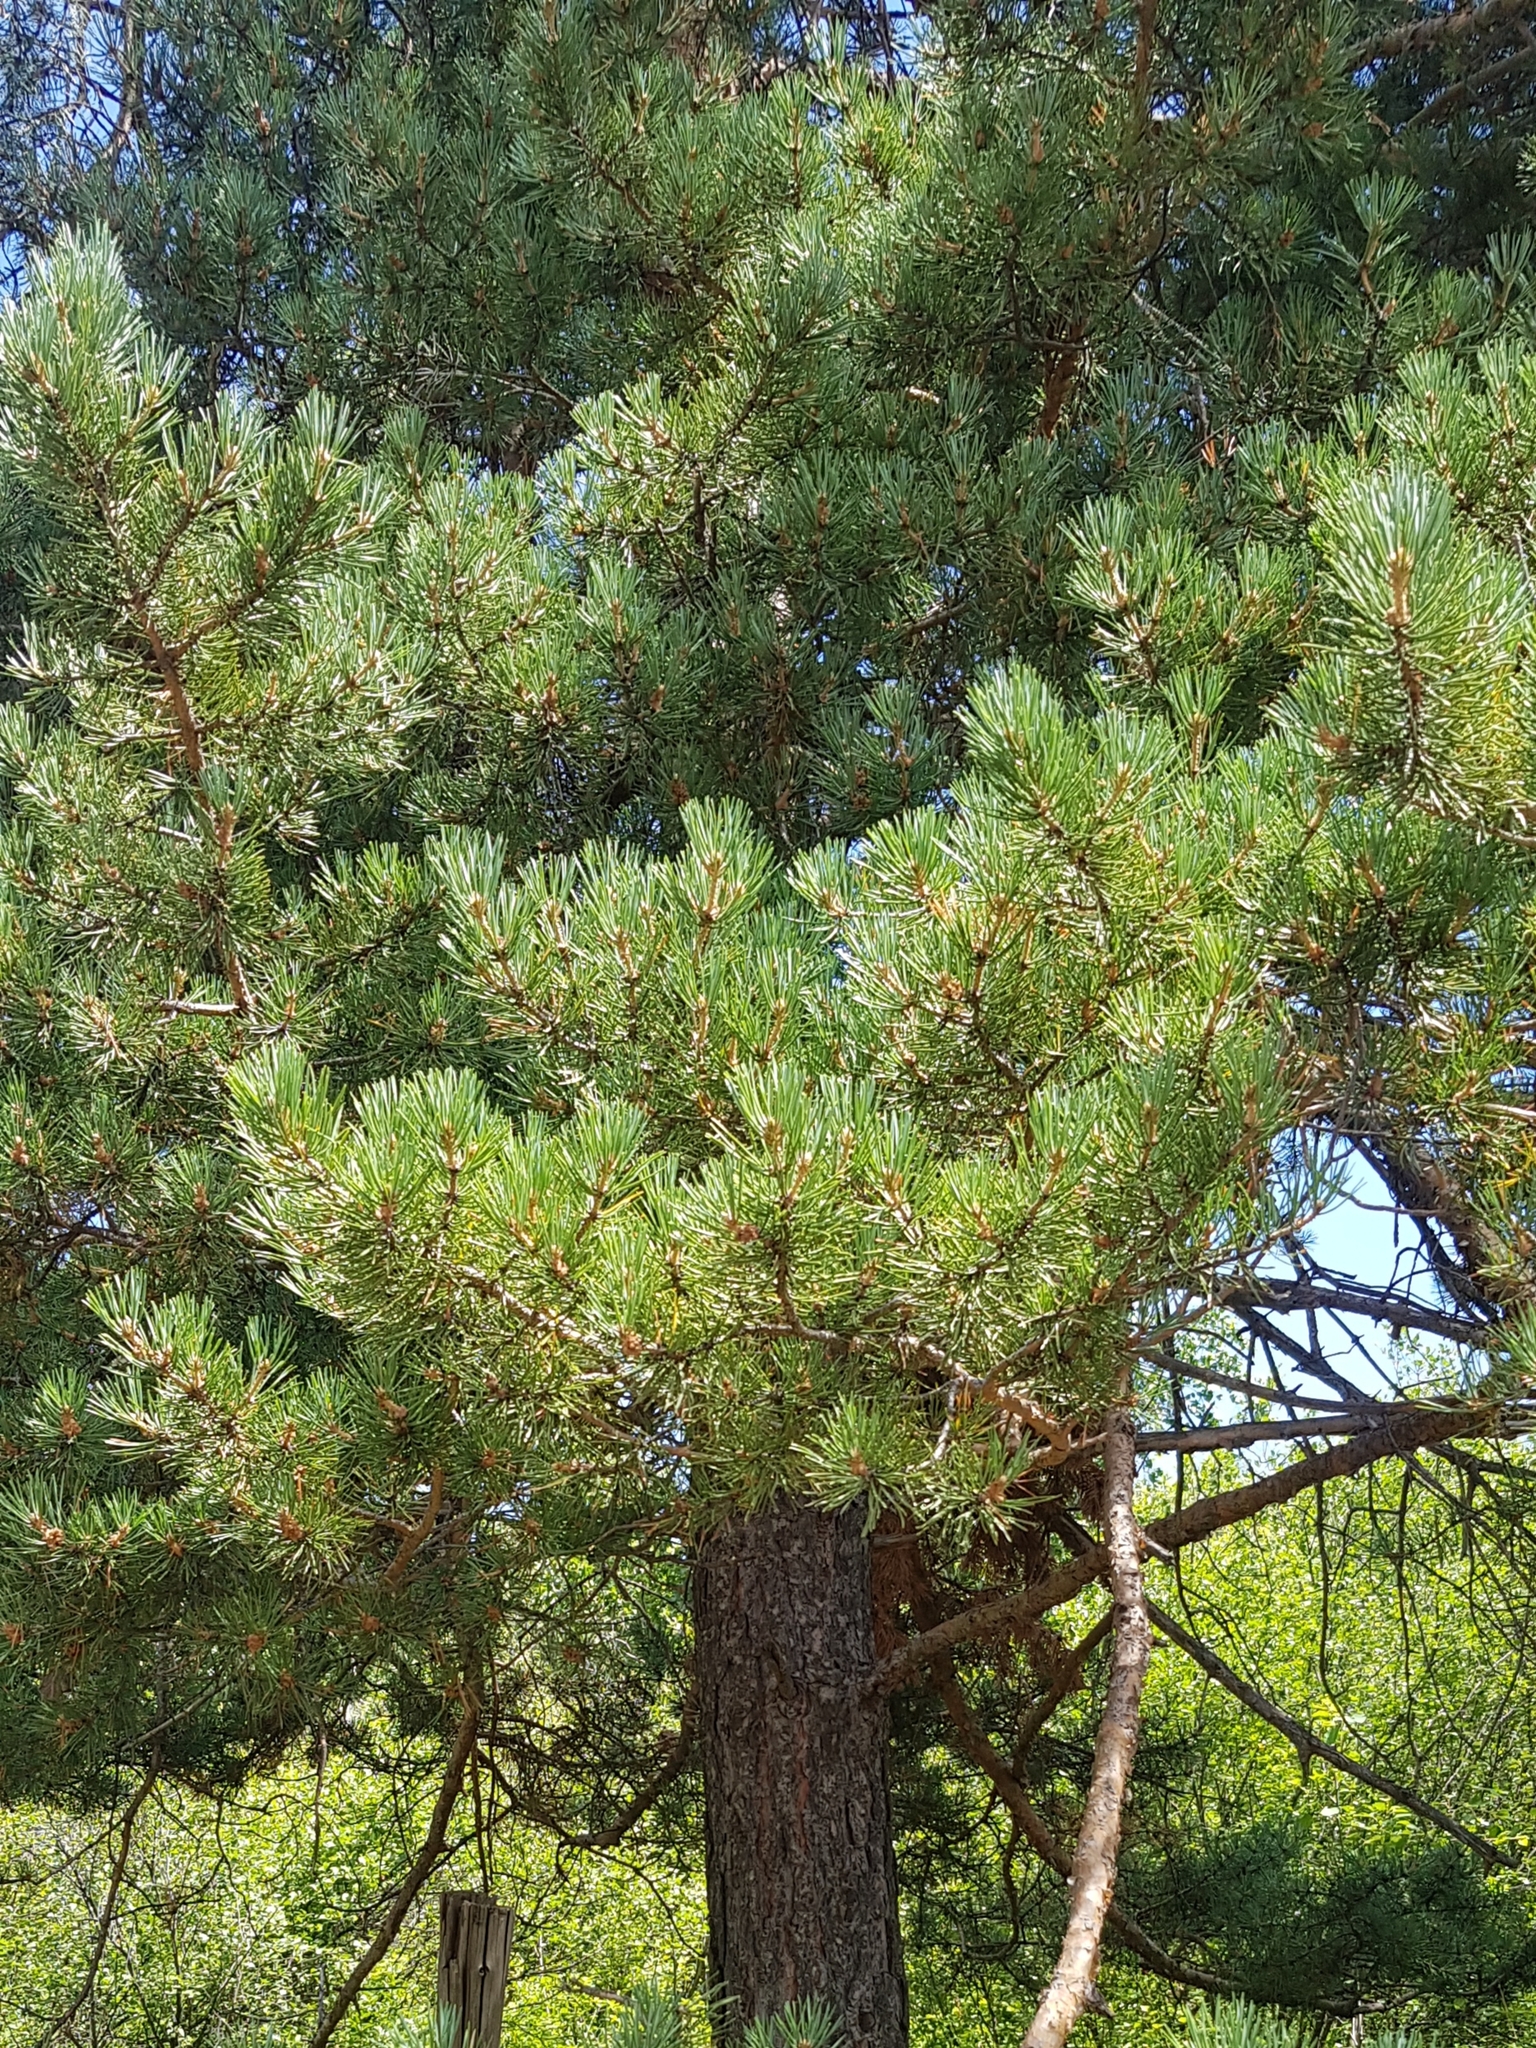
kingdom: Plantae
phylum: Tracheophyta
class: Pinopsida
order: Pinales
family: Pinaceae
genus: Pinus
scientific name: Pinus sylvestris
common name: Scots pine
